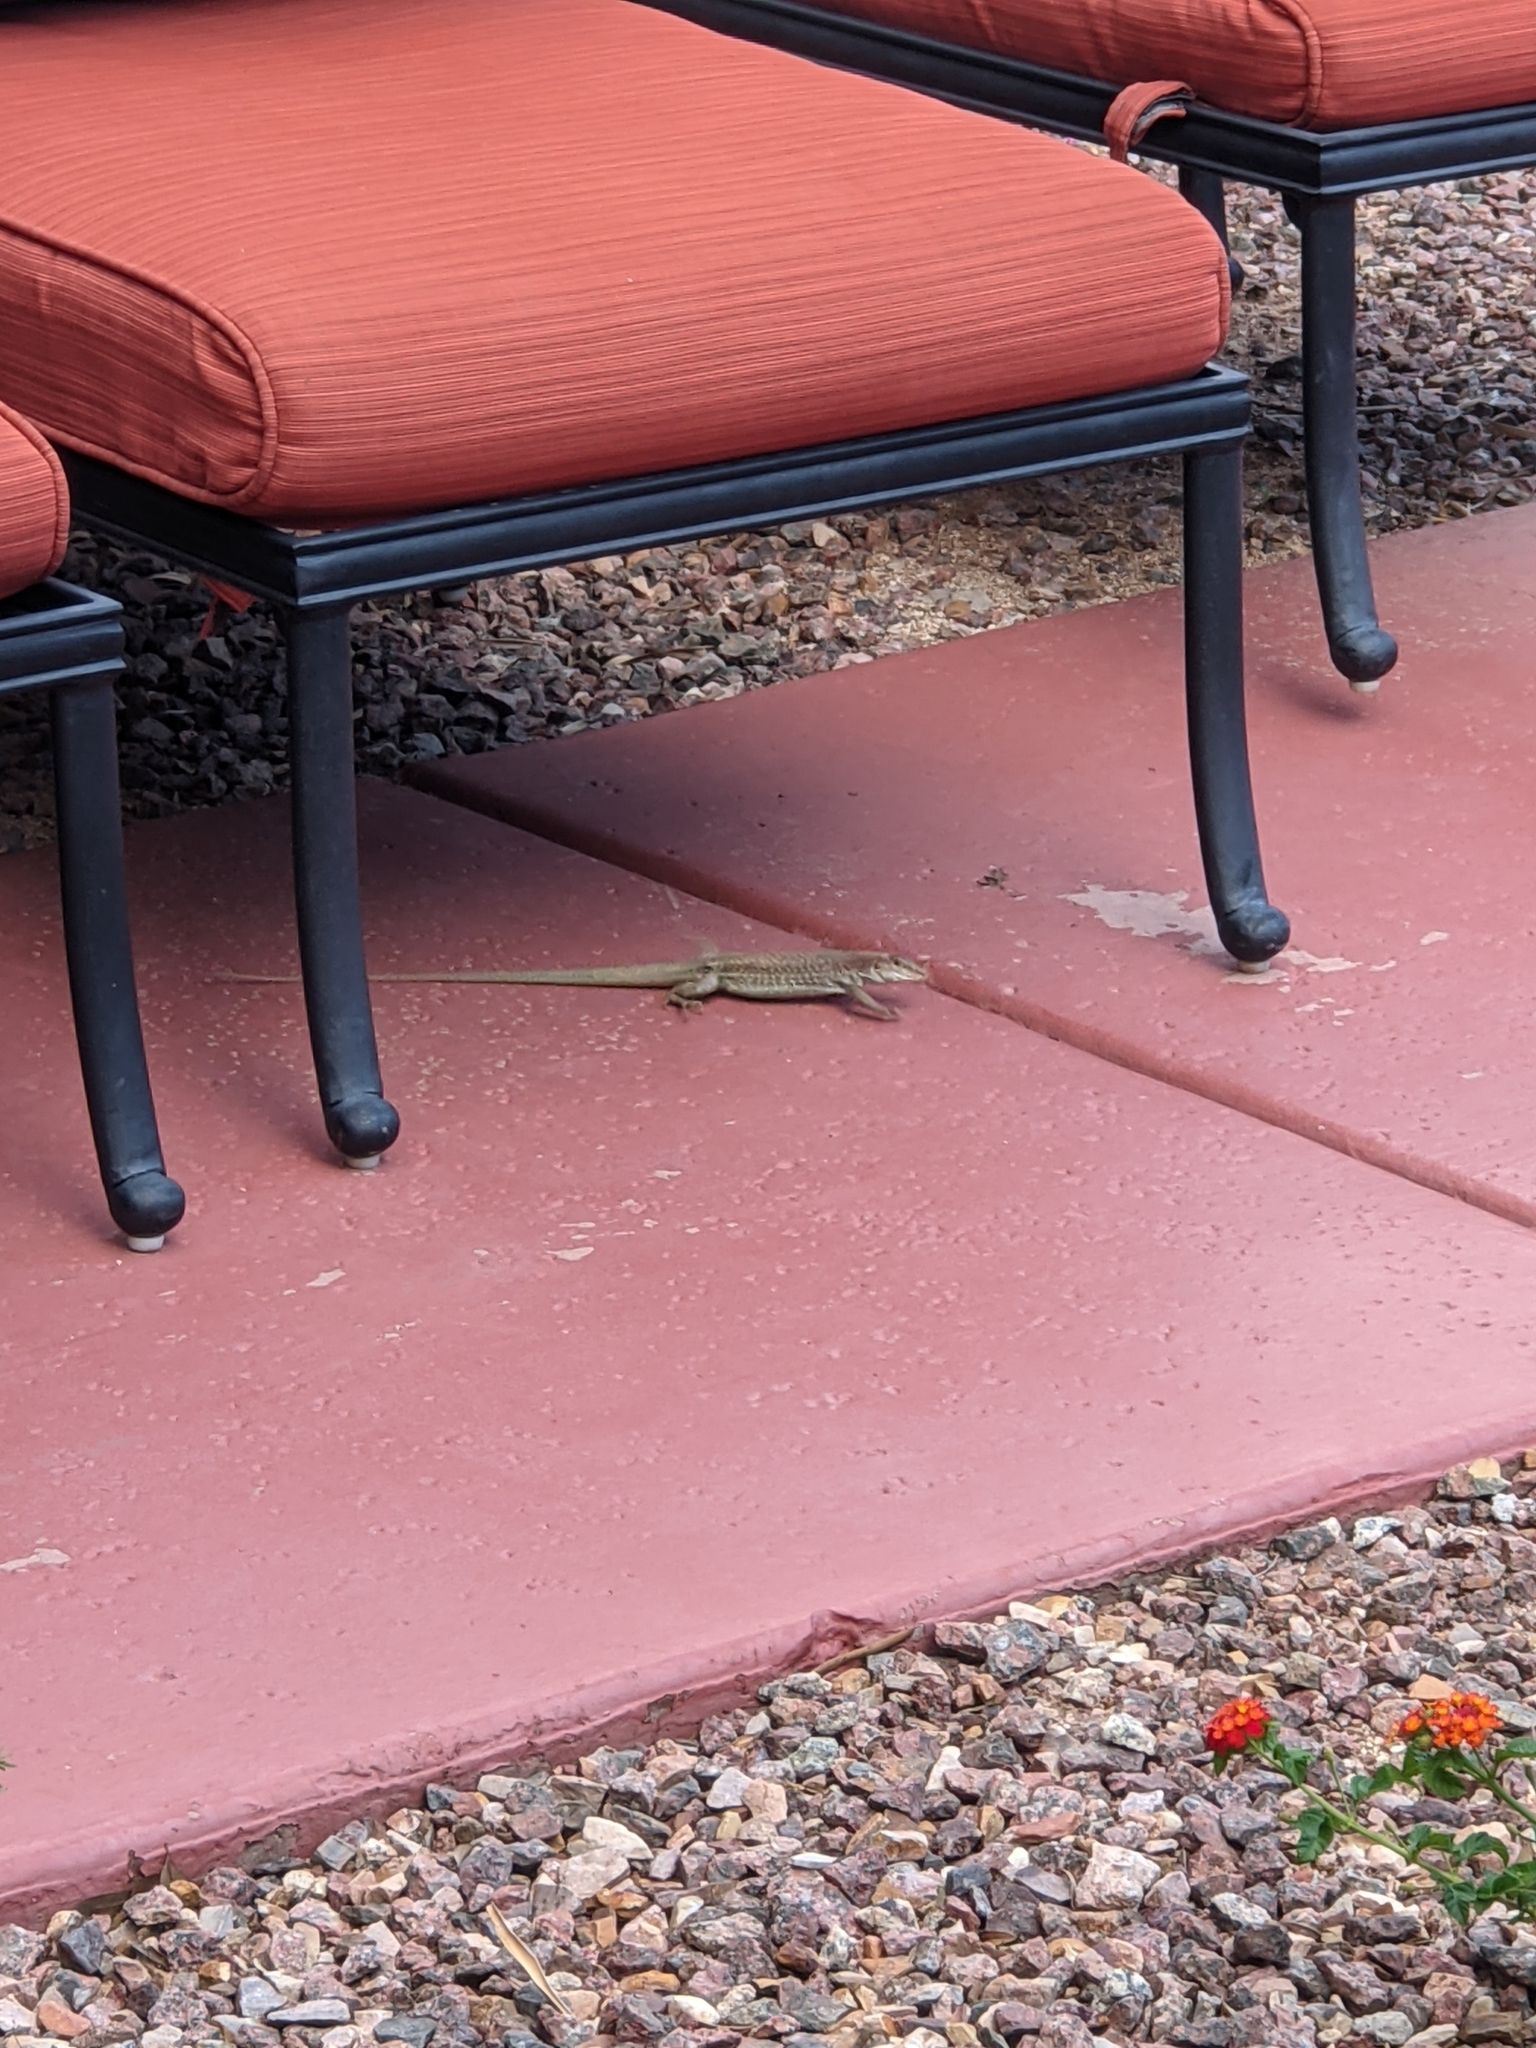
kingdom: Animalia
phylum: Chordata
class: Squamata
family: Teiidae
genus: Aspidoscelis
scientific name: Aspidoscelis stictogrammus
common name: Giant spotted whiptail
